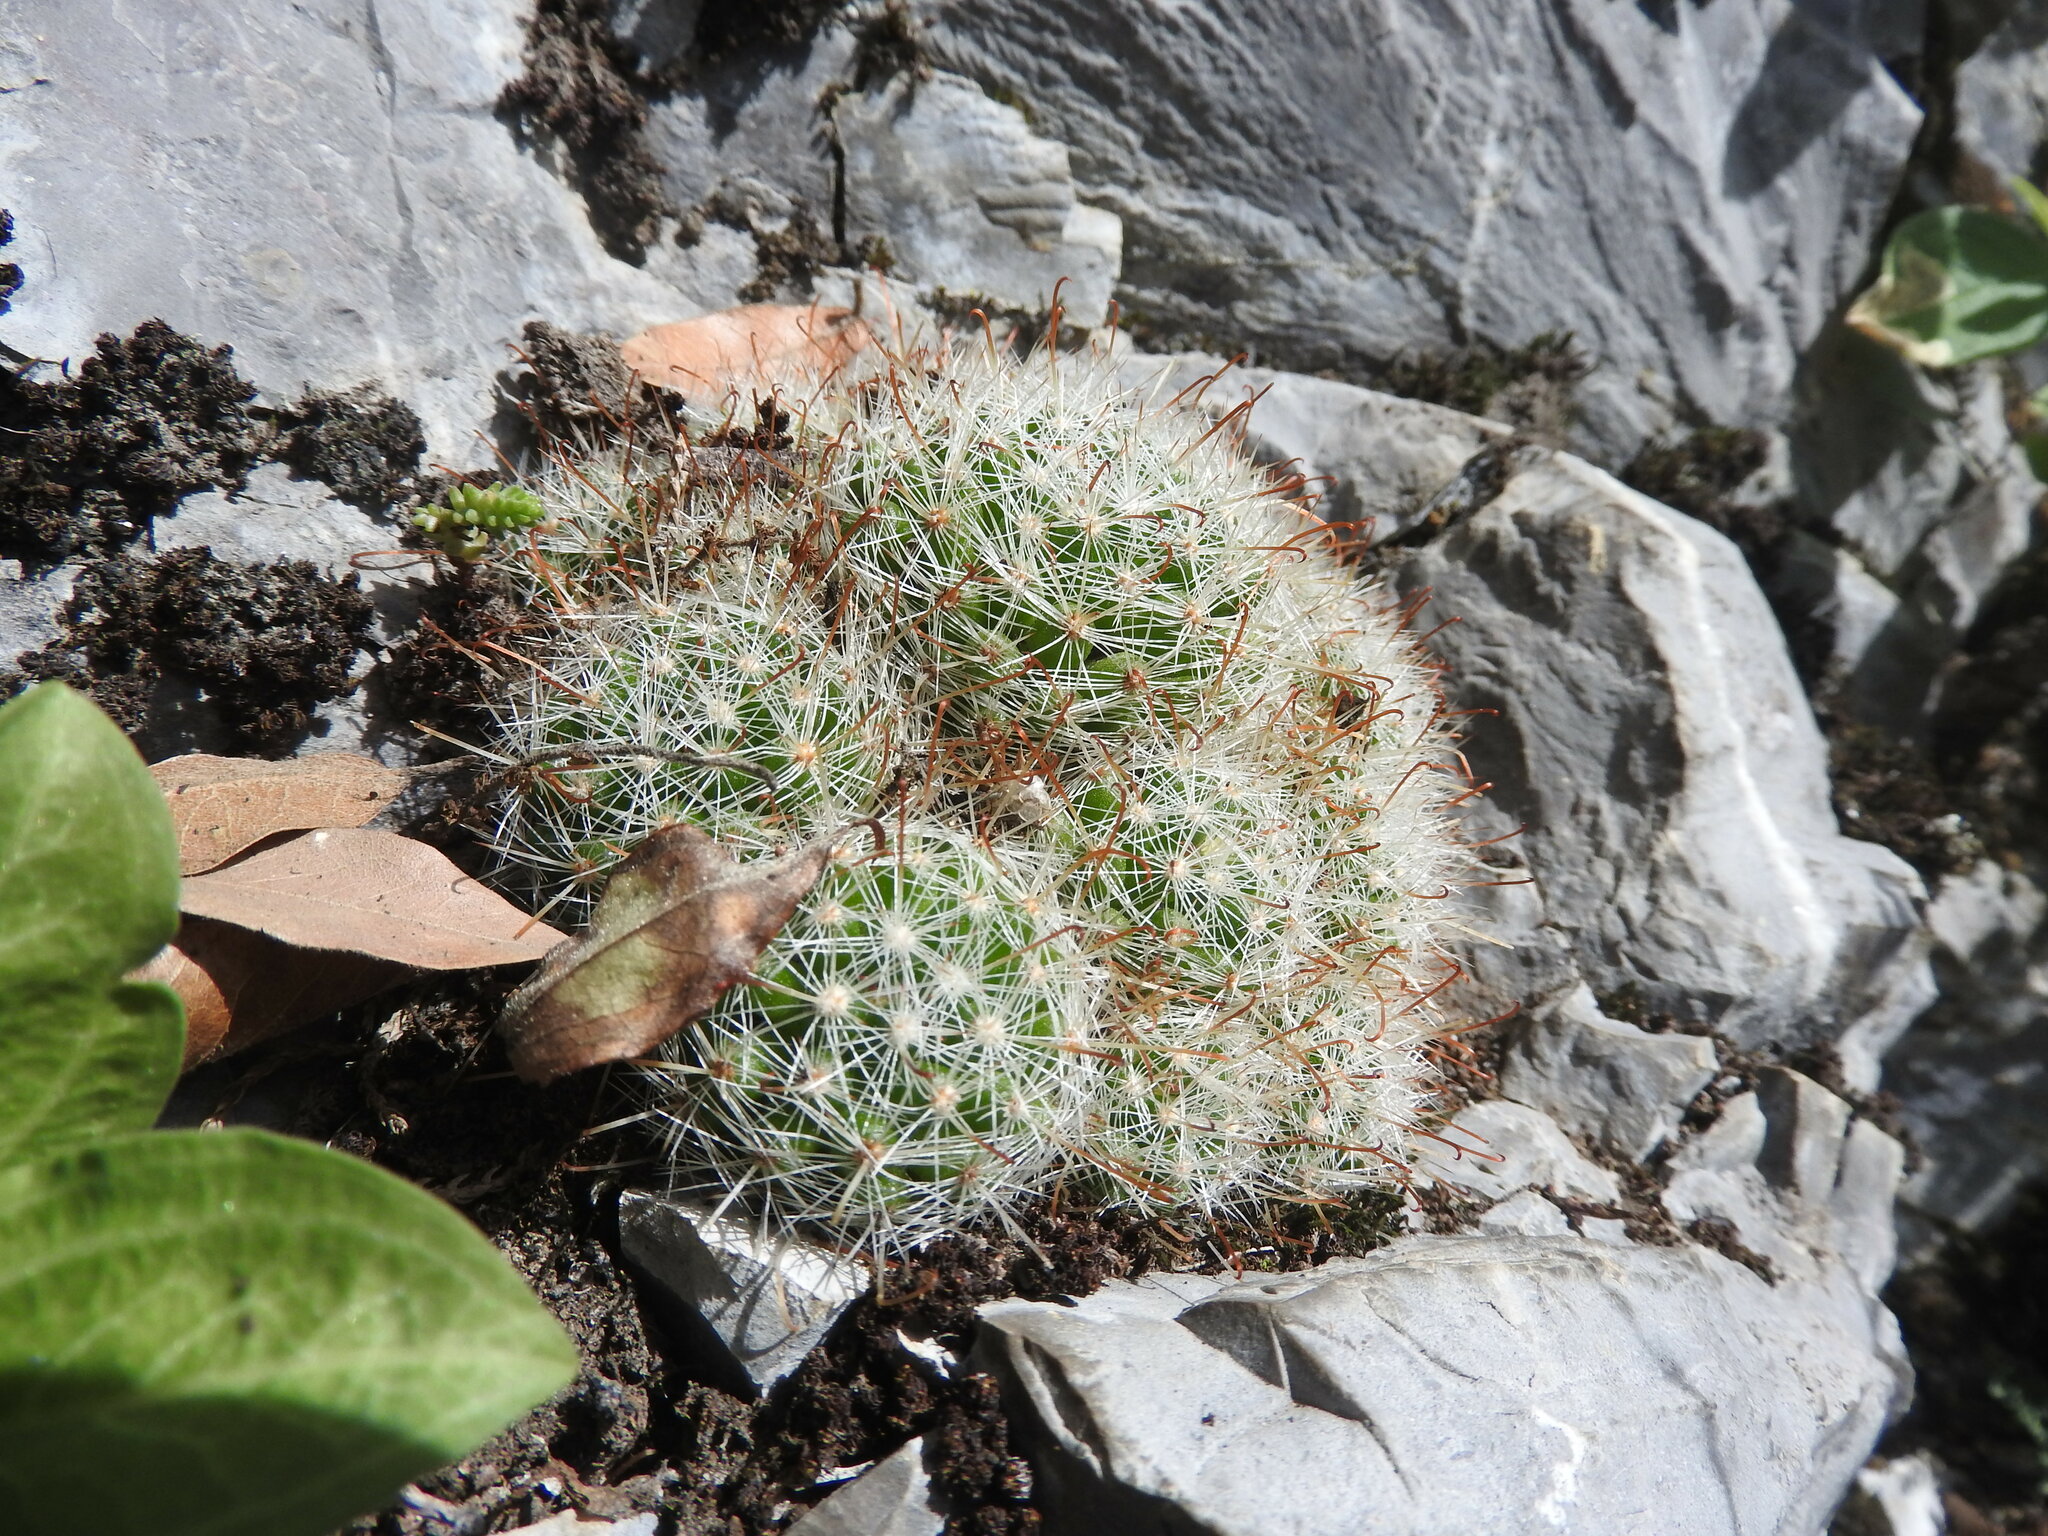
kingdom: Plantae
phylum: Tracheophyta
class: Magnoliopsida
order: Caryophyllales
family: Cactaceae
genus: Mammillaria
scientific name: Mammillaria erythrosperma
